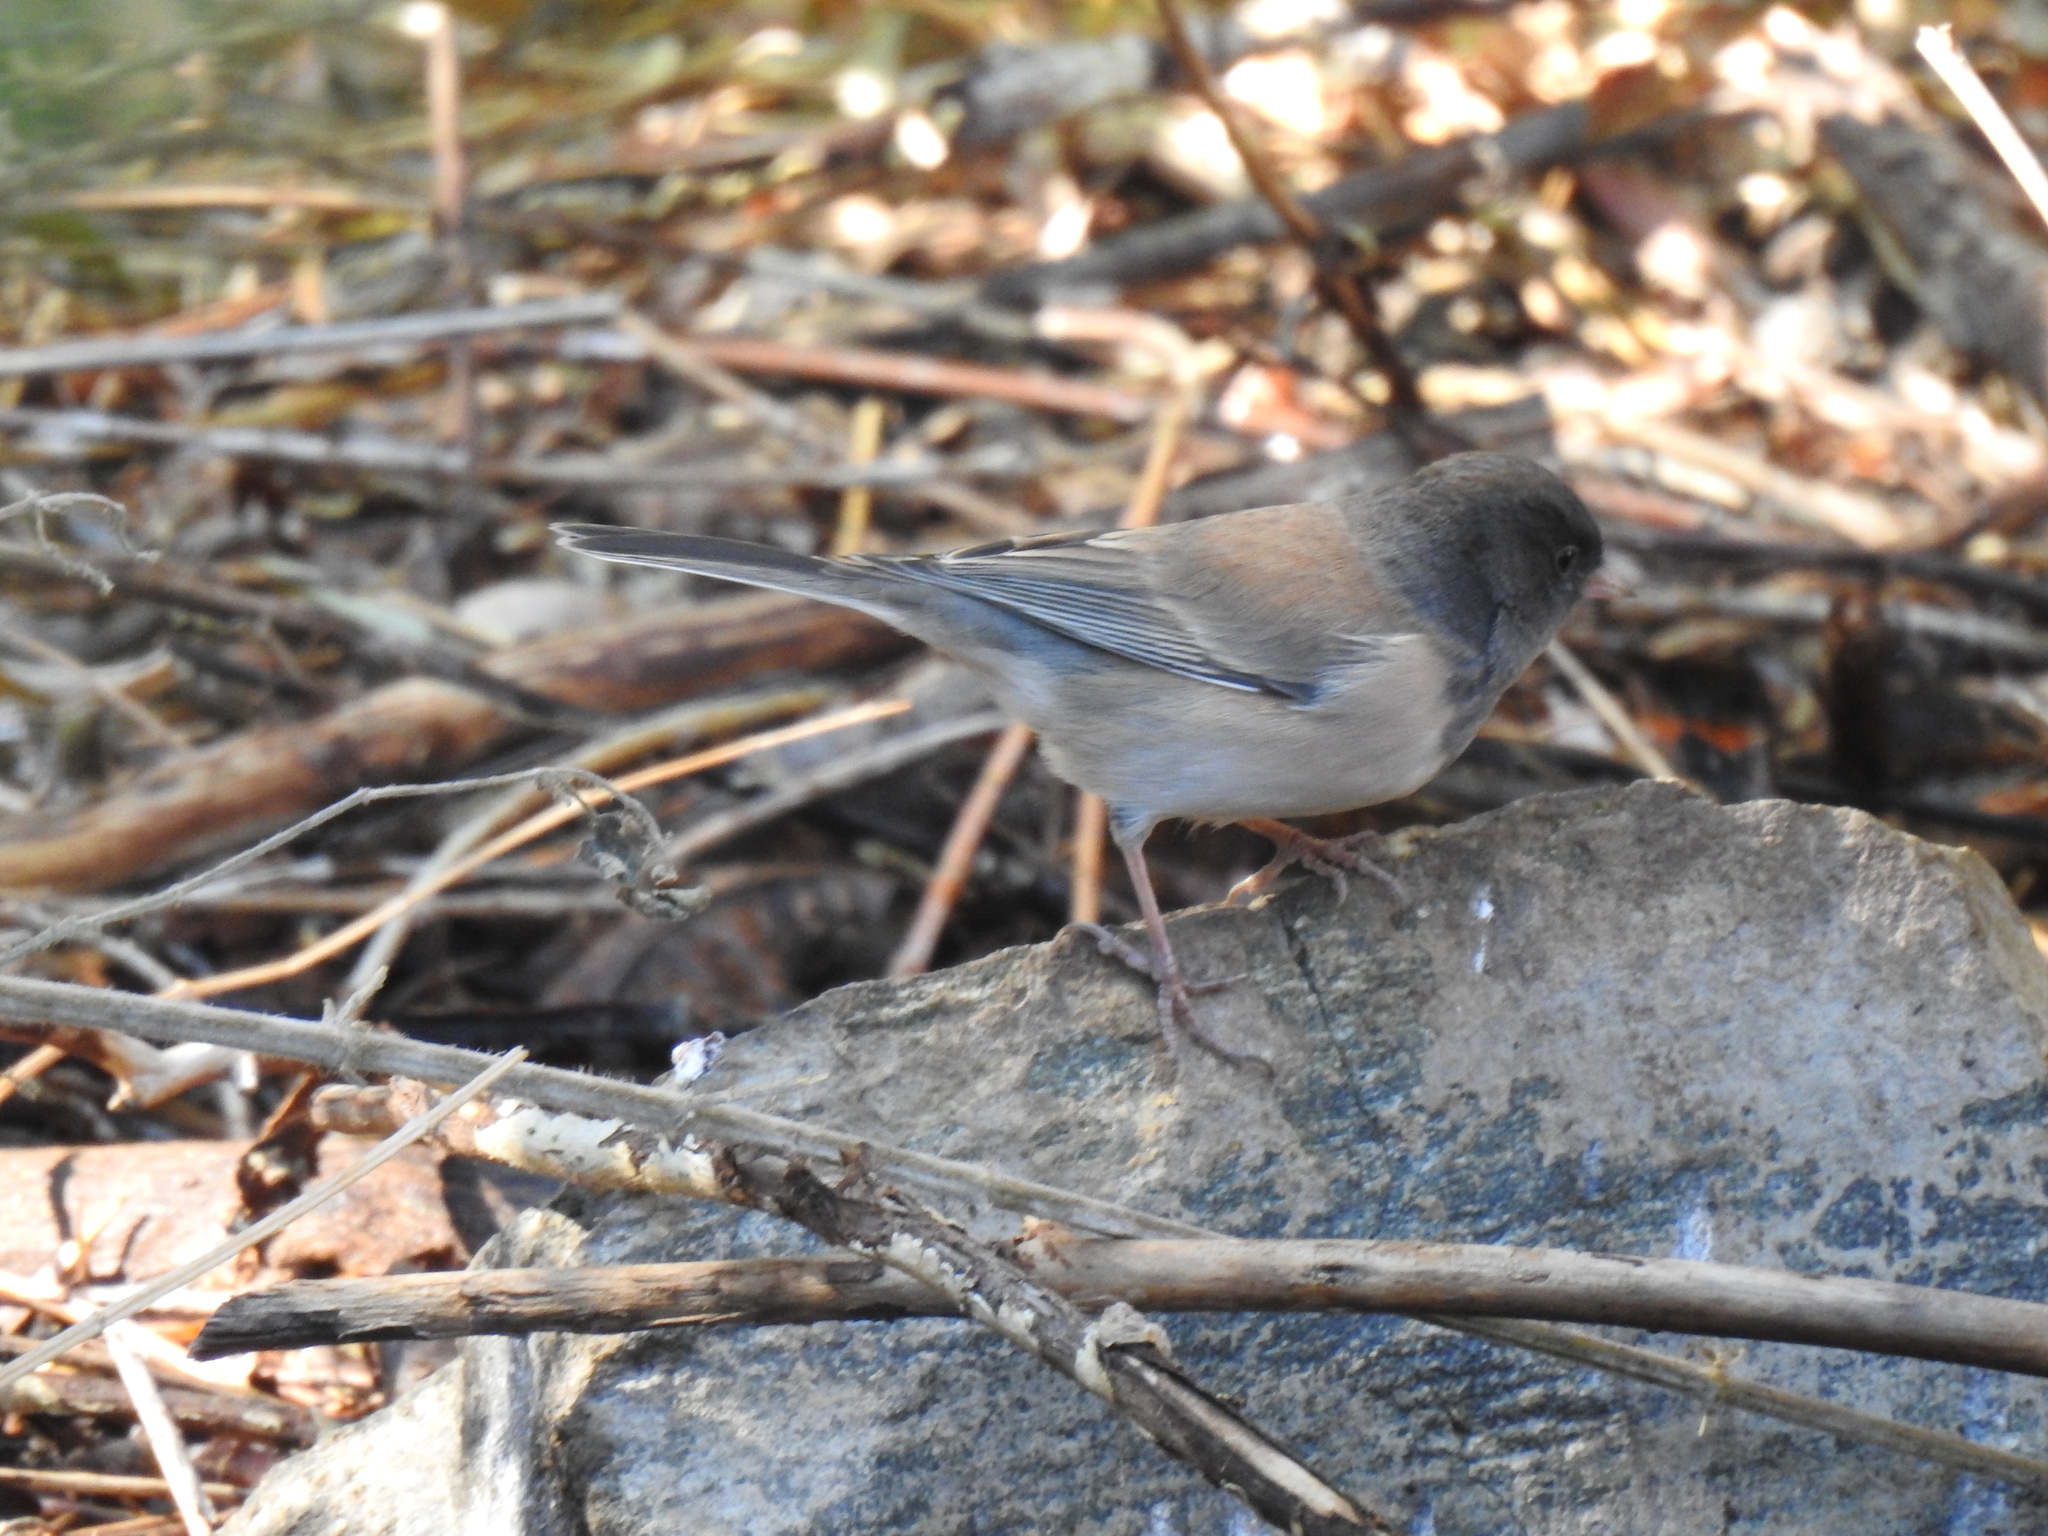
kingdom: Animalia
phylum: Chordata
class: Aves
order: Passeriformes
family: Passerellidae
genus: Junco
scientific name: Junco hyemalis
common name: Dark-eyed junco
